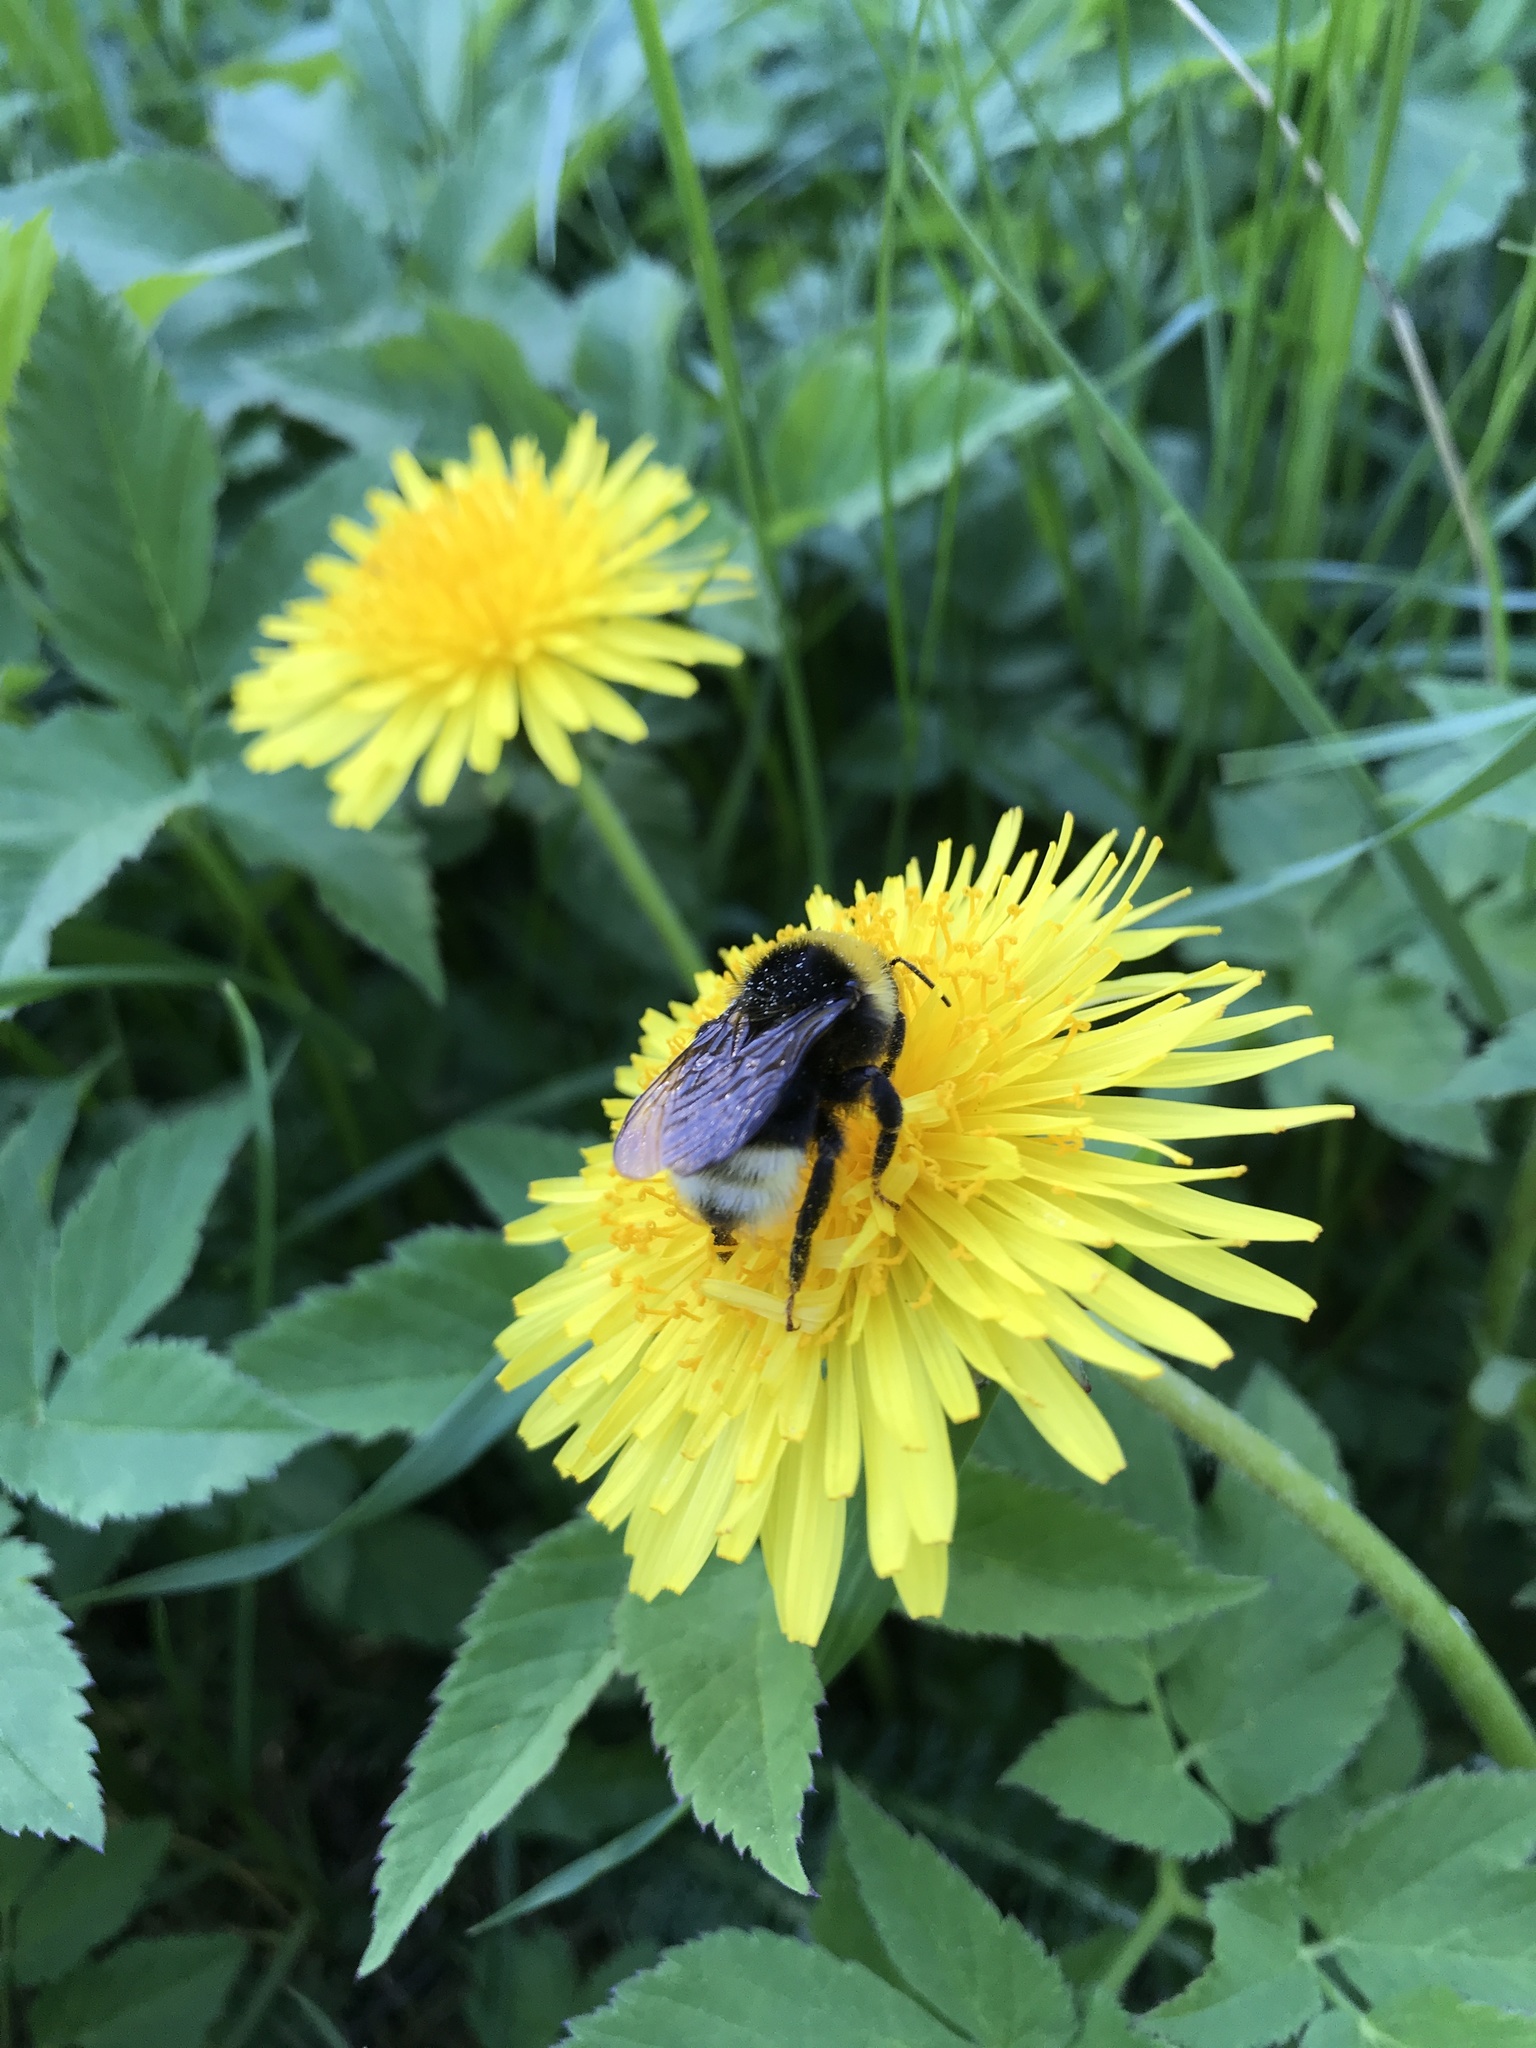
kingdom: Animalia
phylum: Arthropoda
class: Insecta
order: Hymenoptera
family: Apidae
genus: Bombus
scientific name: Bombus bohemicus
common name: Gypsy cuckoo bee
